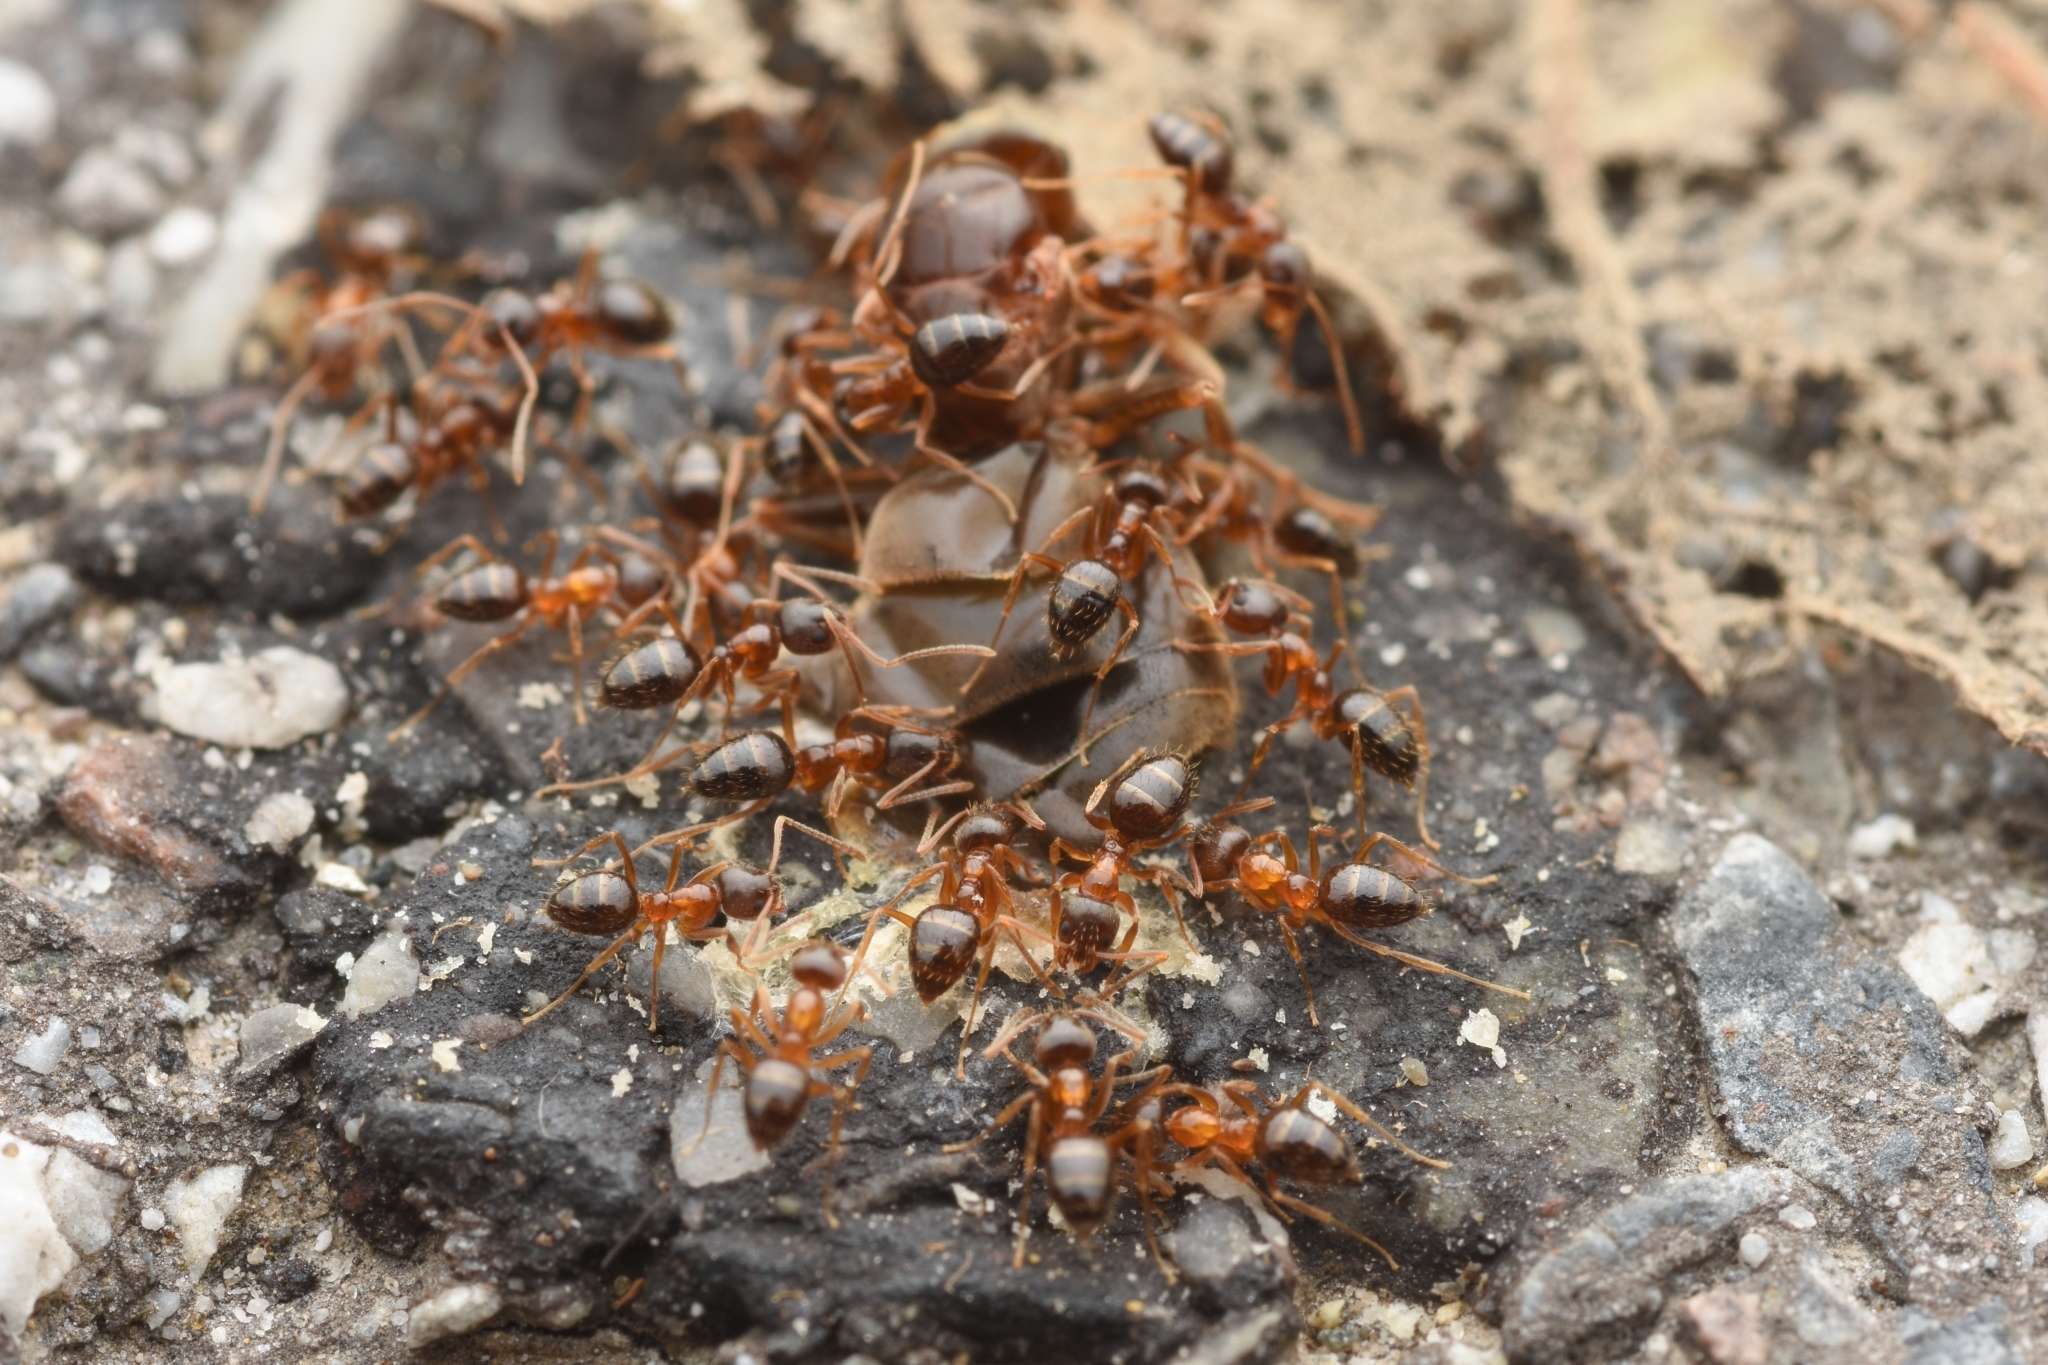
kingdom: Animalia
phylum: Arthropoda
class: Insecta
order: Hymenoptera
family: Formicidae
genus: Paratrechina
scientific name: Paratrechina flavipes
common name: Eastern asian formicine ant
